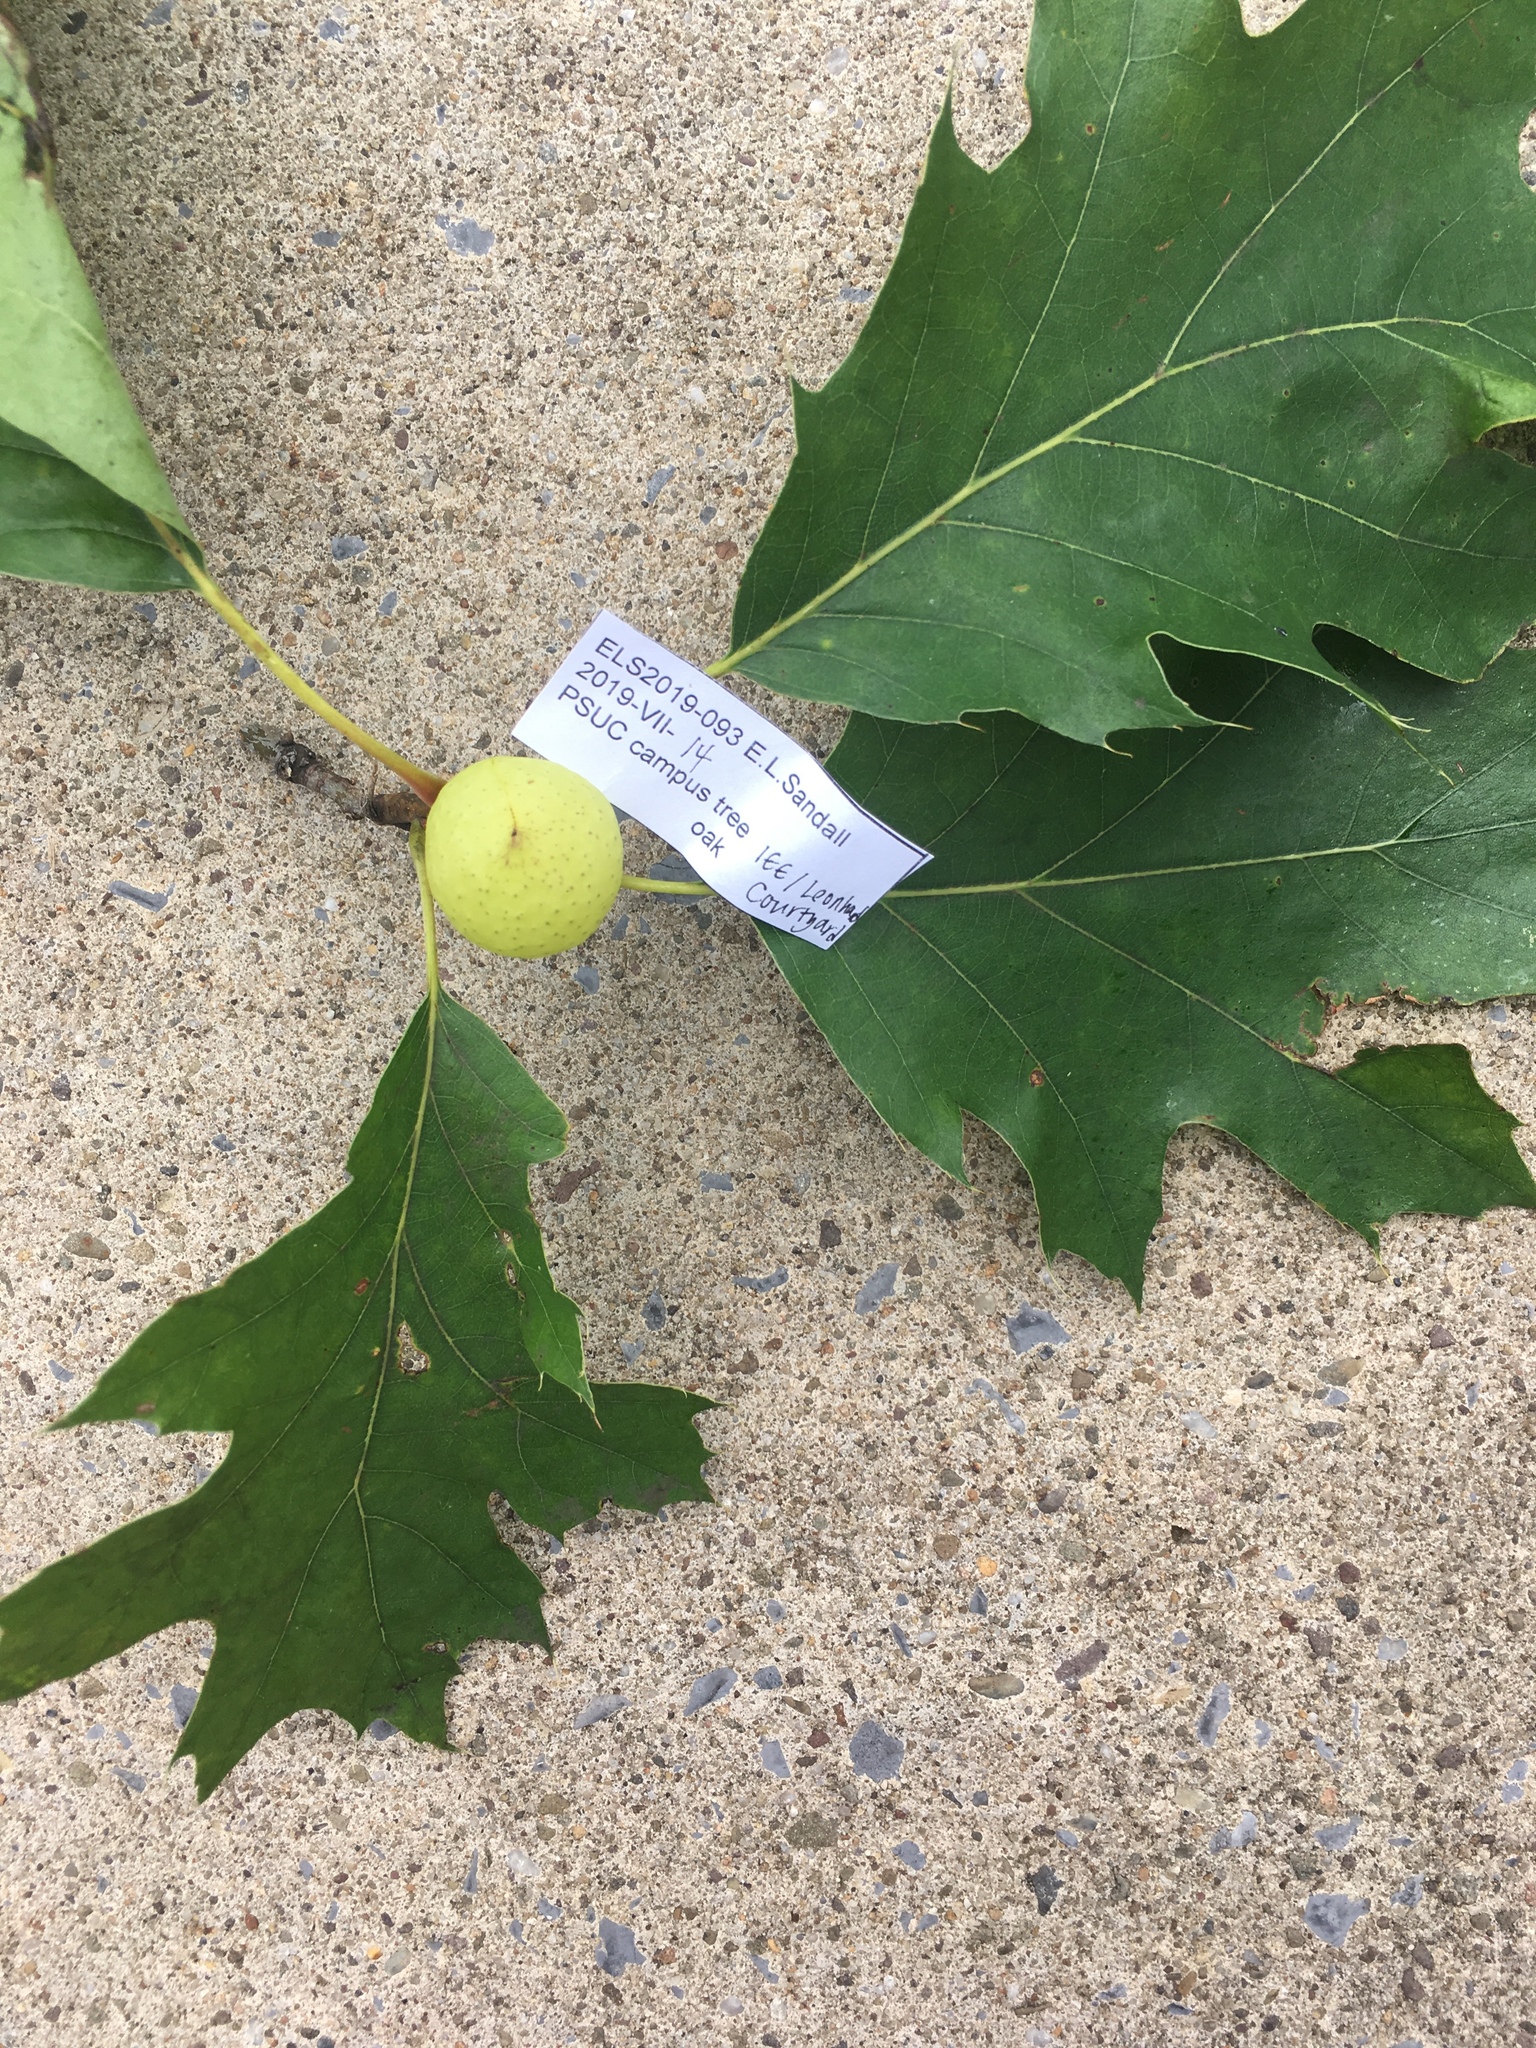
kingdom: Animalia
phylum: Arthropoda
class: Insecta
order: Hymenoptera
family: Cynipidae
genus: Amphibolips
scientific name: Amphibolips
